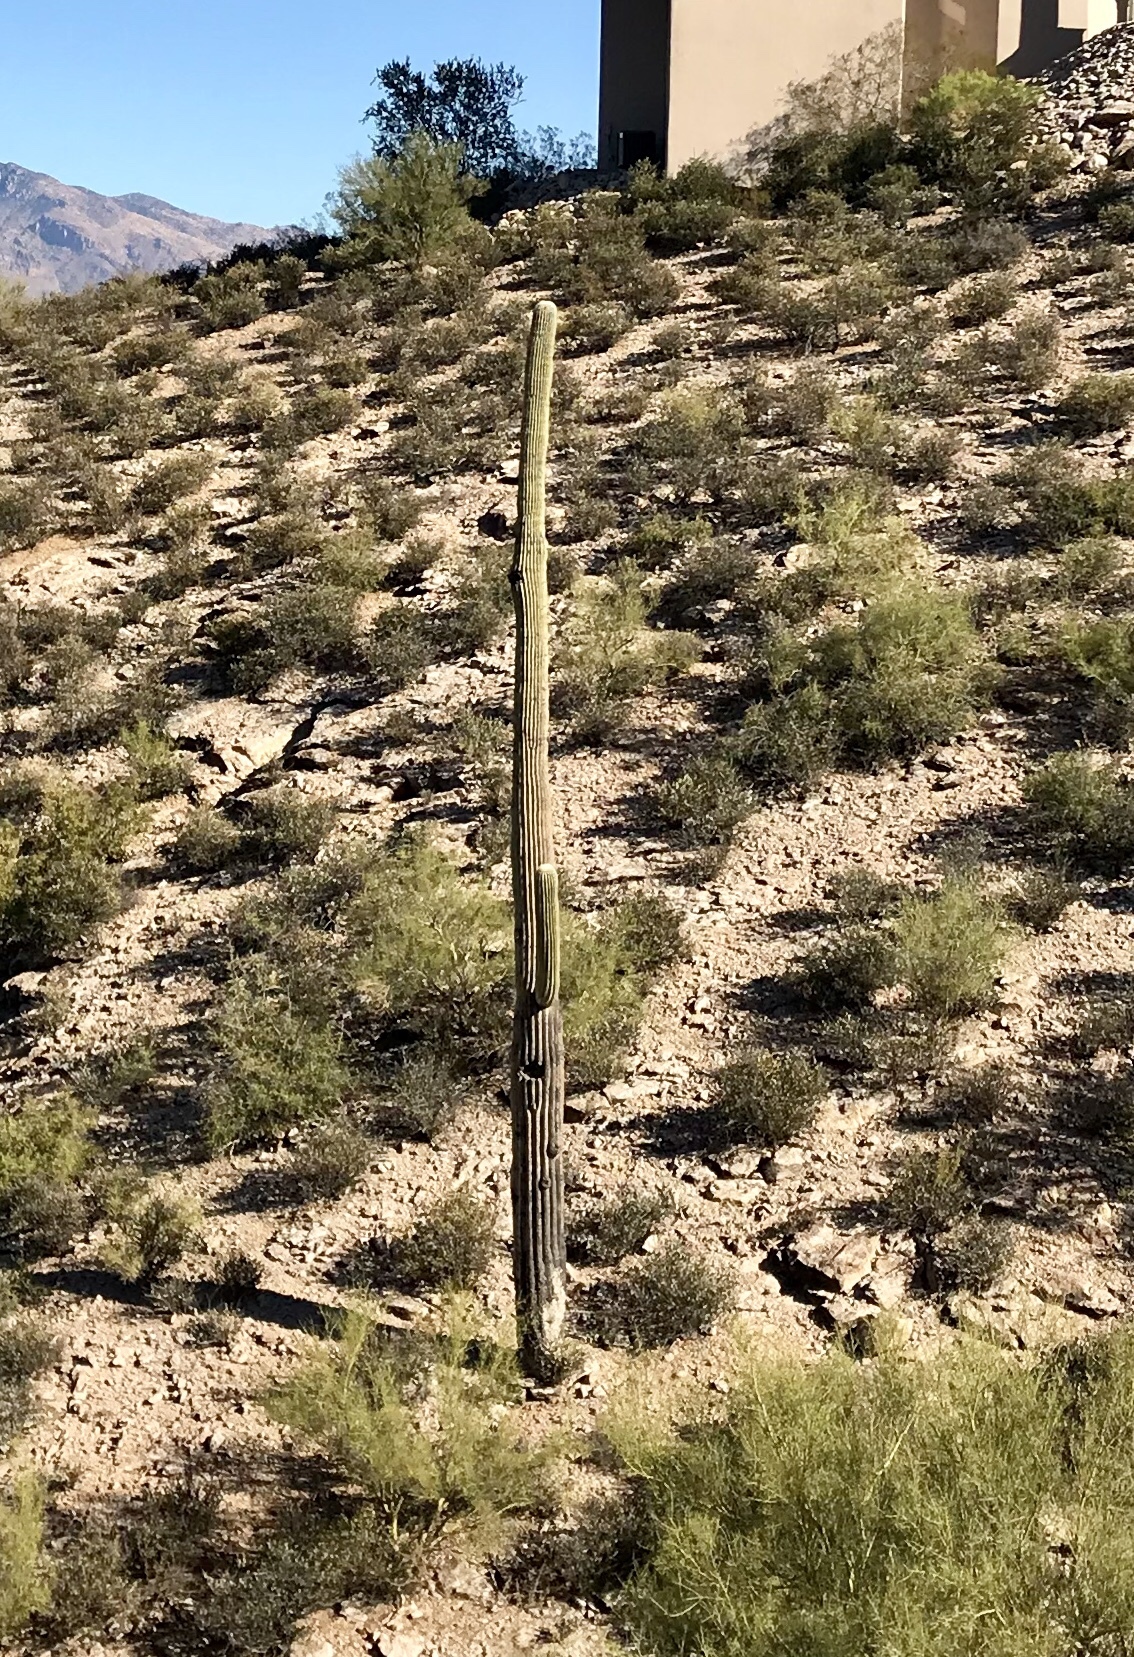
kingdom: Plantae
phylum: Tracheophyta
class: Magnoliopsida
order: Caryophyllales
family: Cactaceae
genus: Carnegiea
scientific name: Carnegiea gigantea
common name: Saguaro
